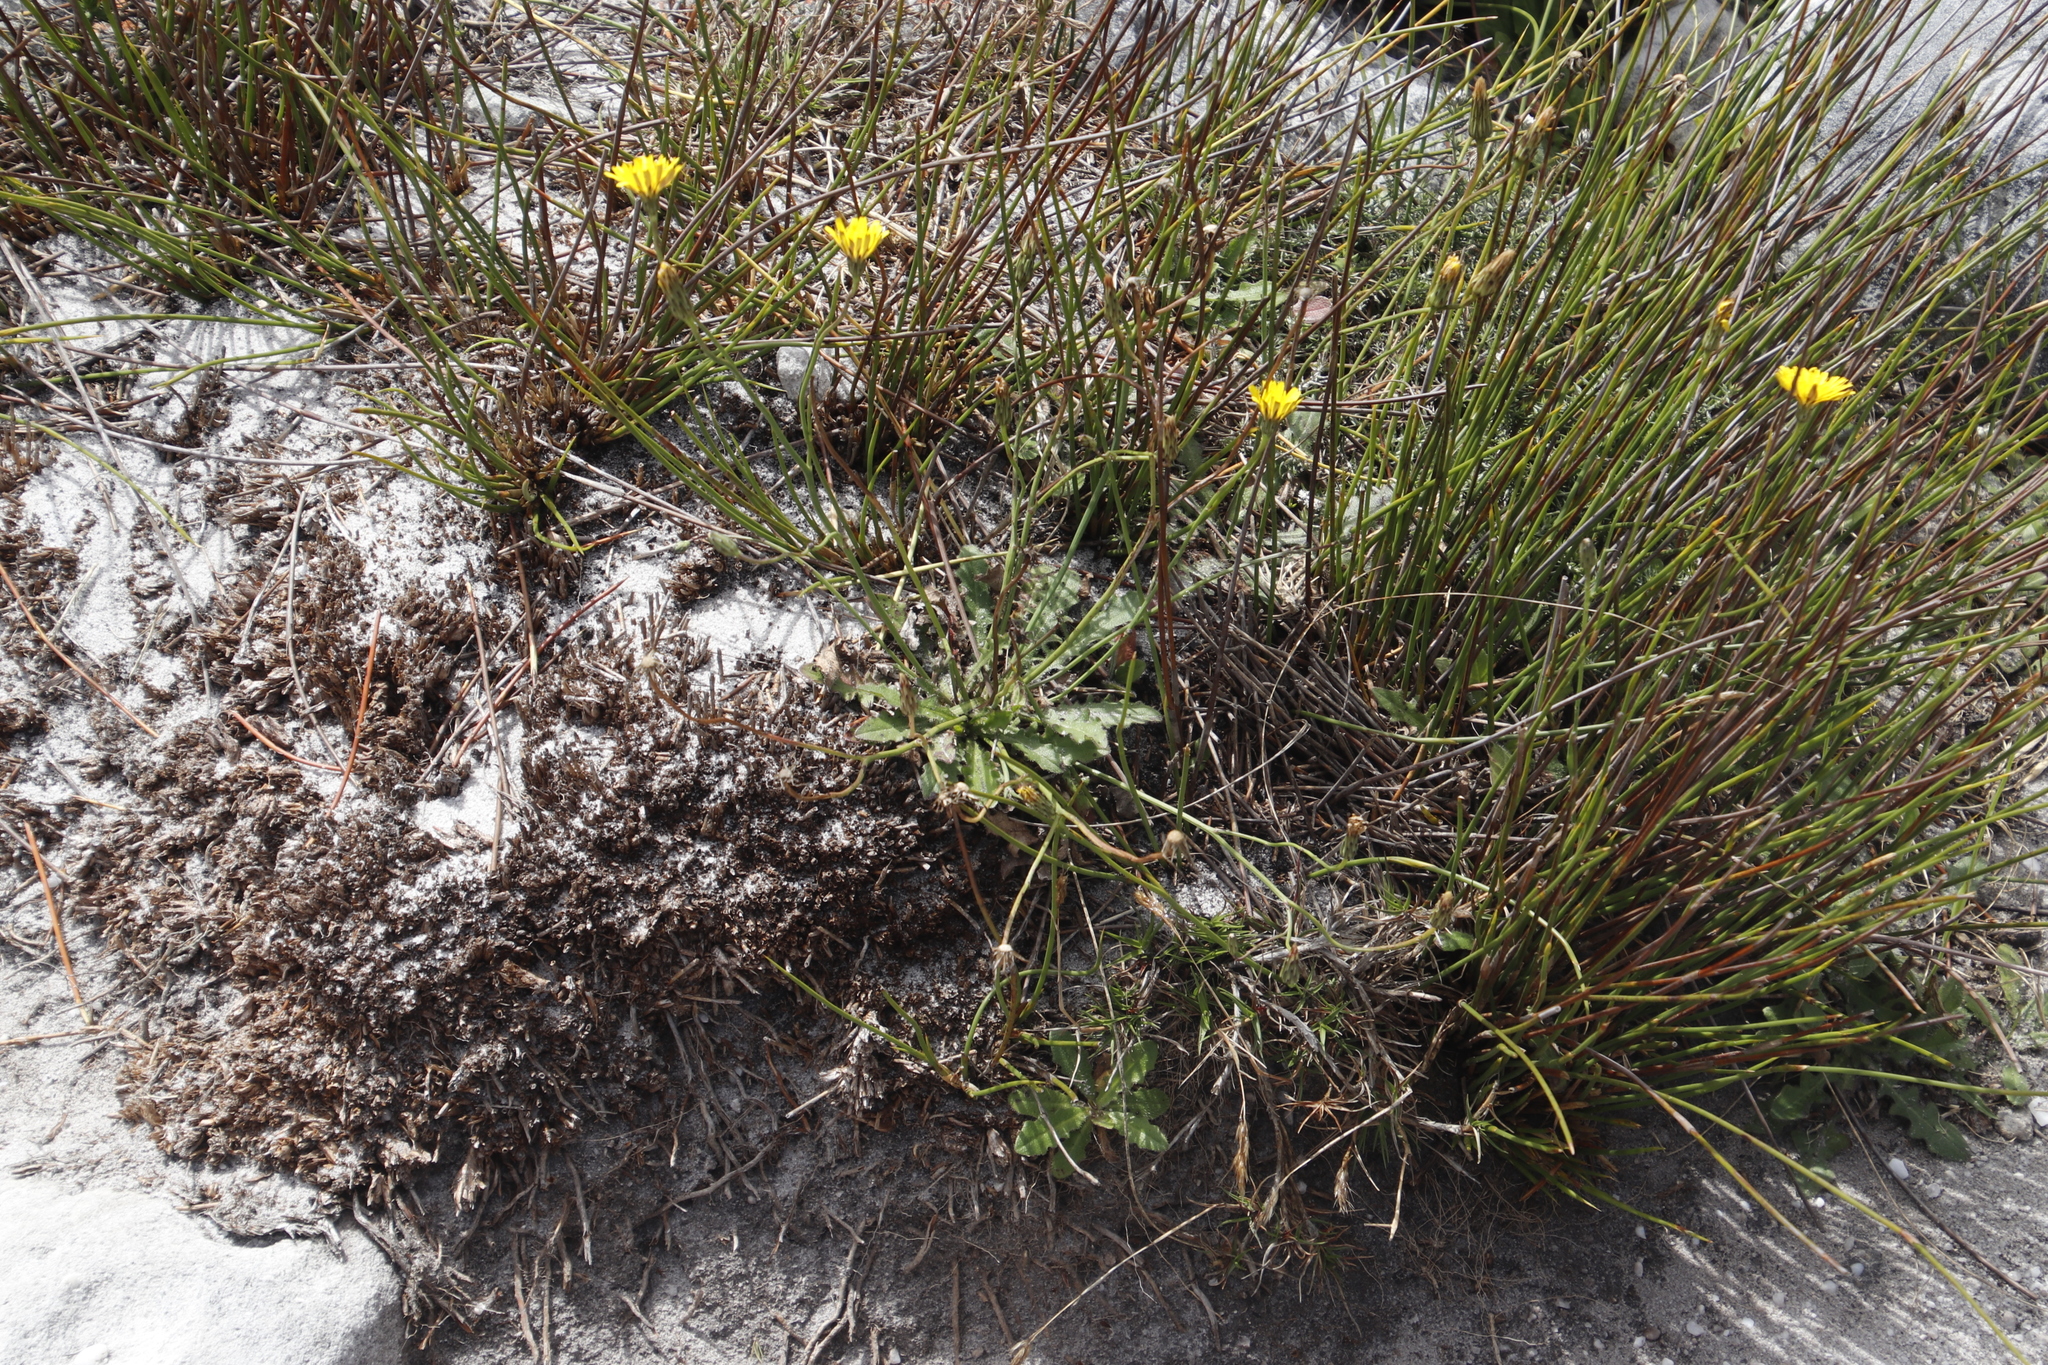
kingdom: Plantae
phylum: Tracheophyta
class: Magnoliopsida
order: Asterales
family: Asteraceae
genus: Hypochaeris
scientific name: Hypochaeris radicata
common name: Flatweed
